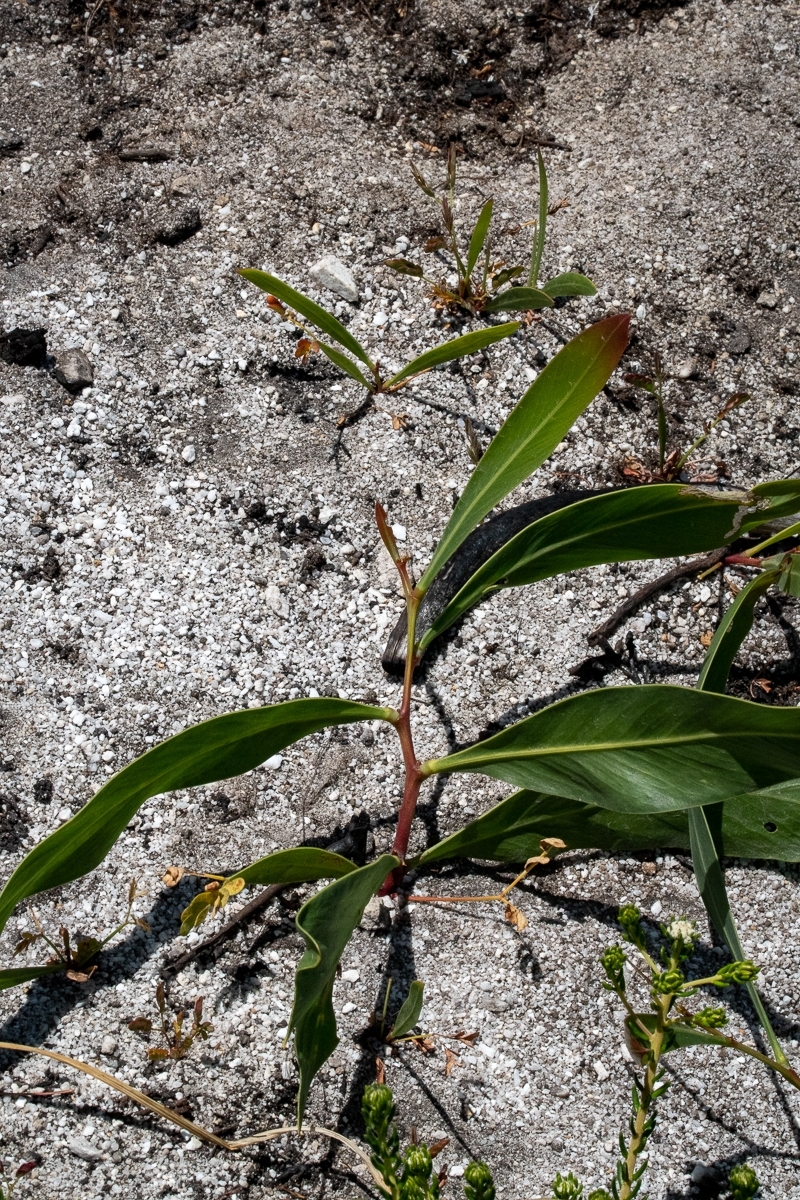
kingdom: Plantae
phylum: Tracheophyta
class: Magnoliopsida
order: Fabales
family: Fabaceae
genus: Acacia
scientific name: Acacia saligna
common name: Orange wattle
